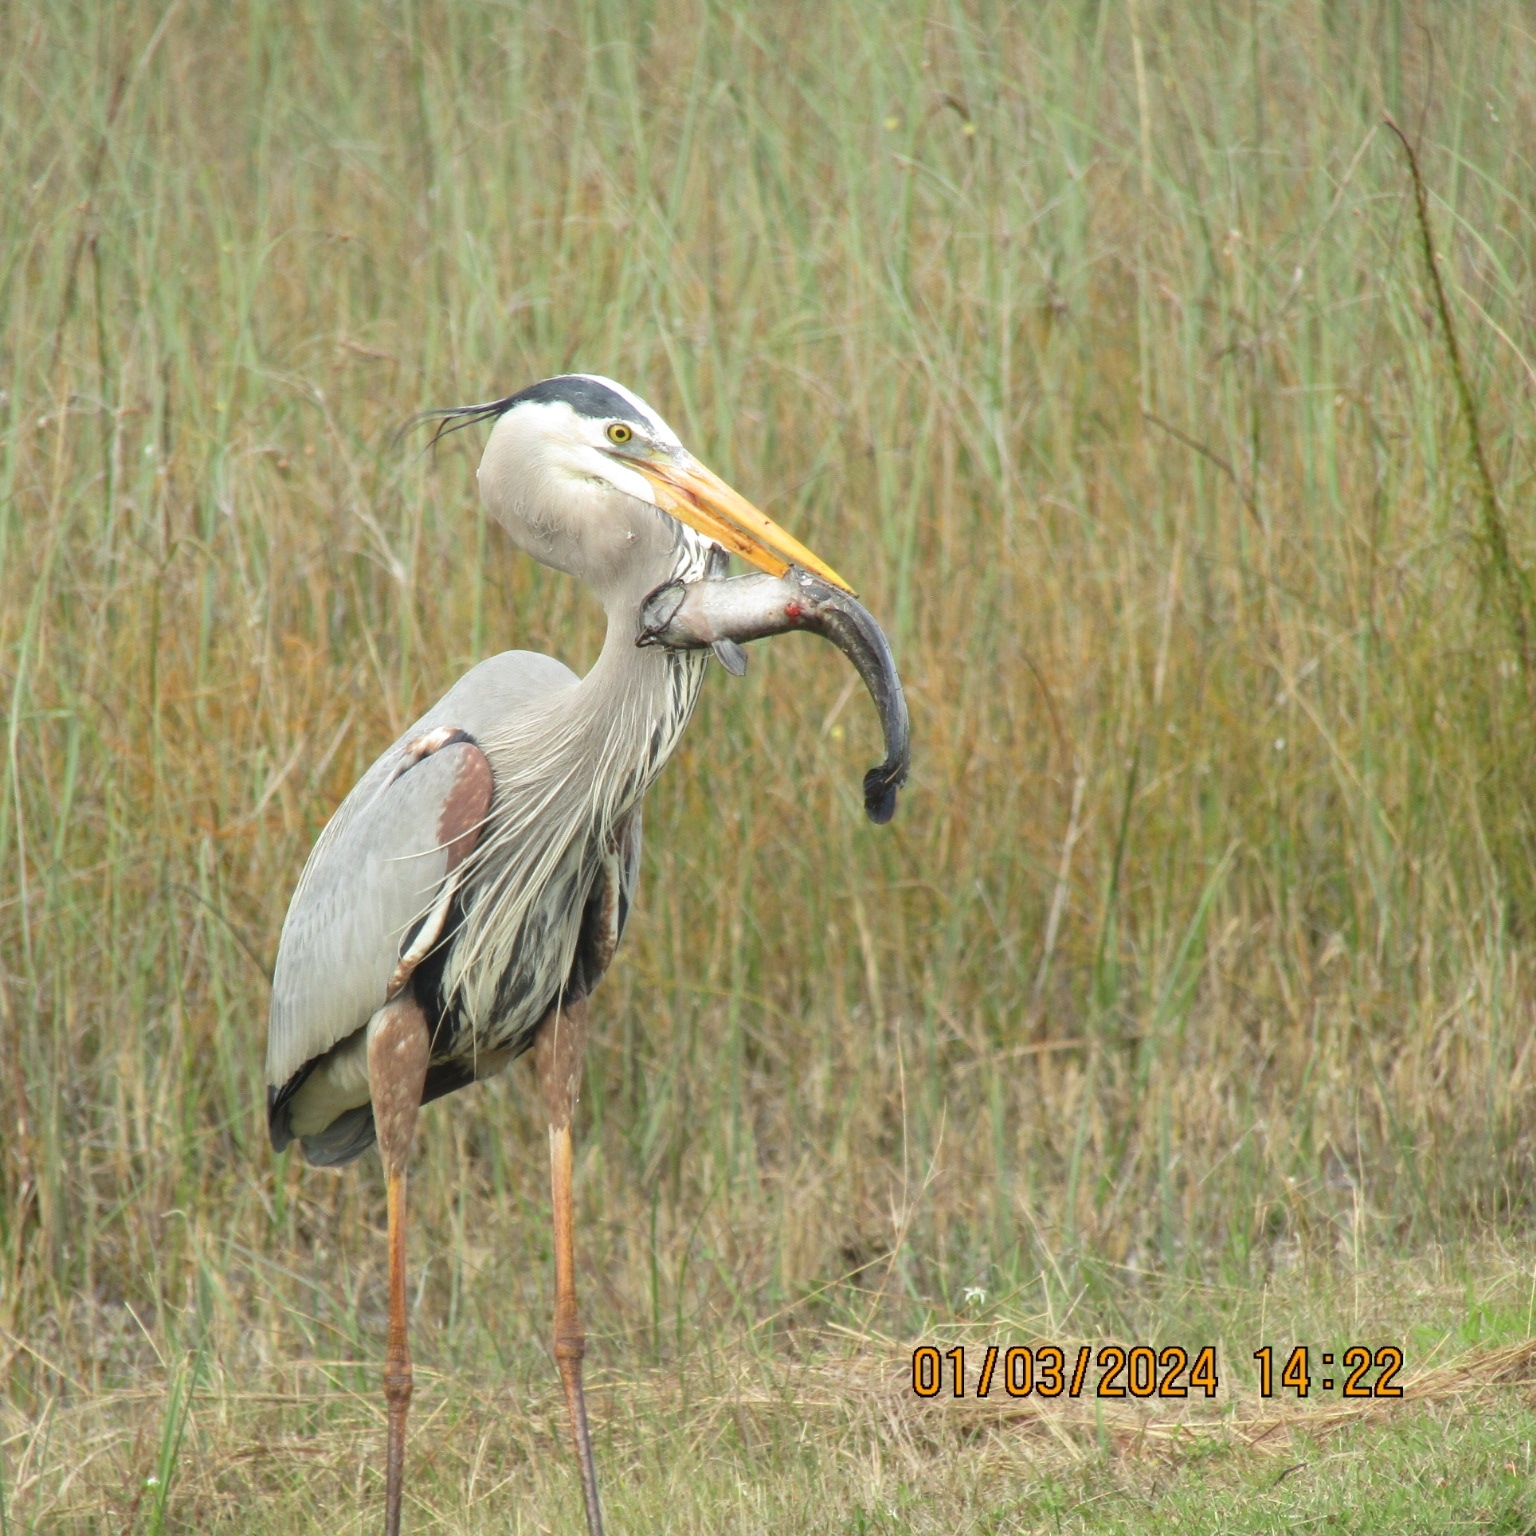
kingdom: Animalia
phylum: Chordata
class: Aves
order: Pelecaniformes
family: Ardeidae
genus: Ardea
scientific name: Ardea herodias
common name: Great blue heron
